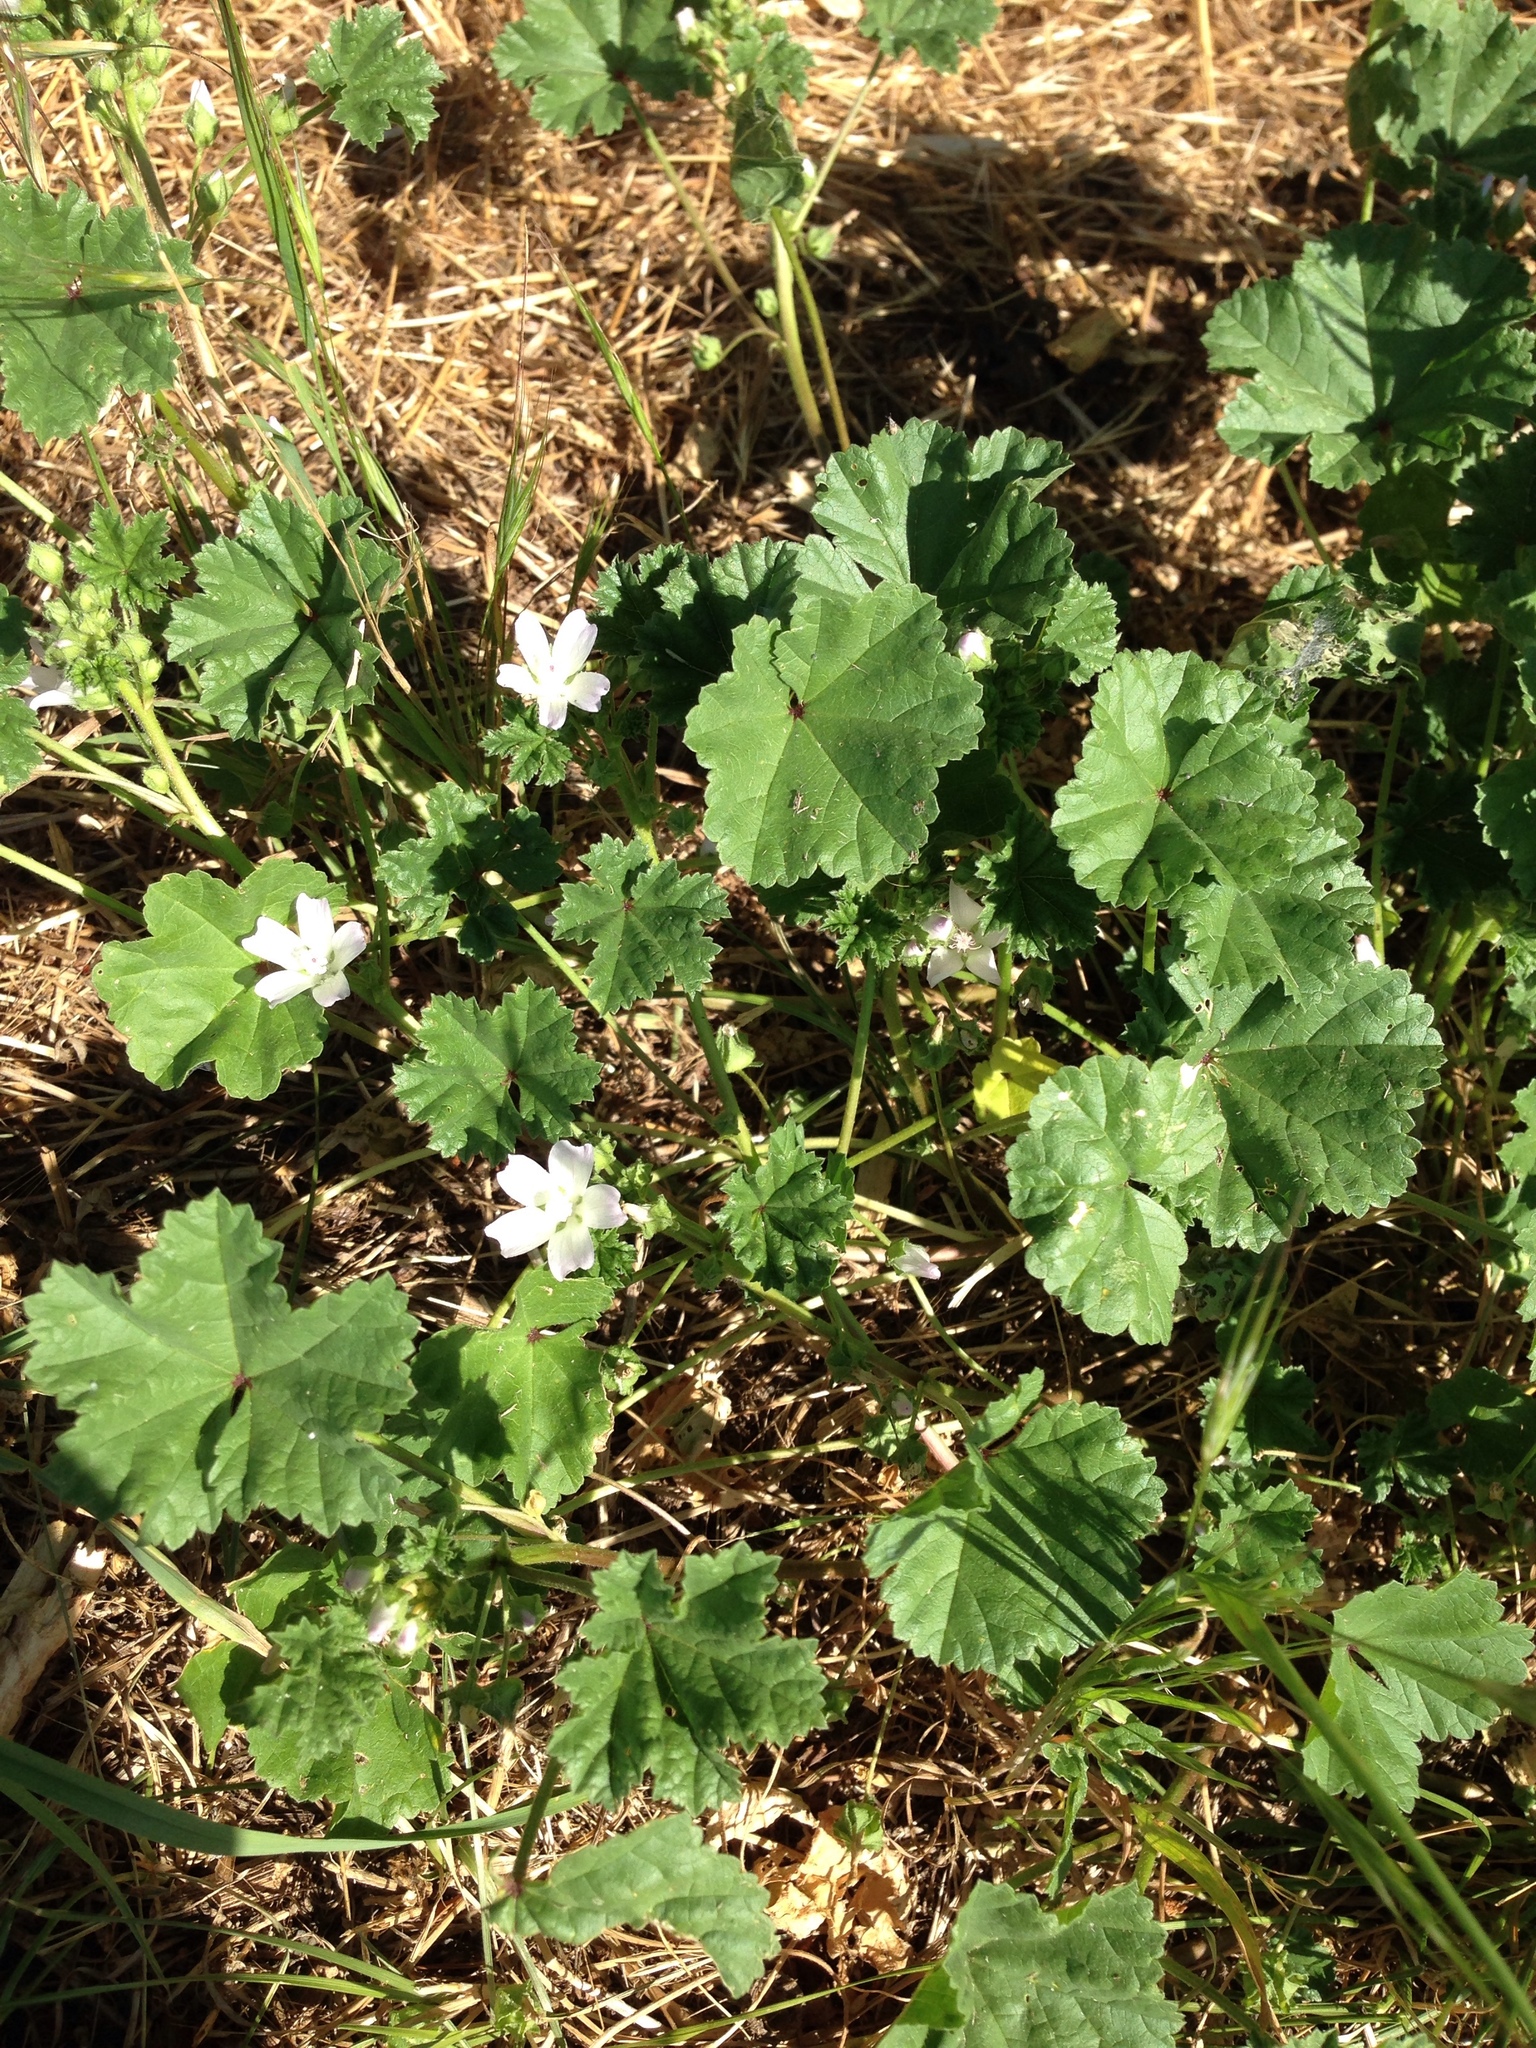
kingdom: Plantae
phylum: Tracheophyta
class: Magnoliopsida
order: Malvales
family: Malvaceae
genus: Malva
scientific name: Malva neglecta
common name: Common mallow
